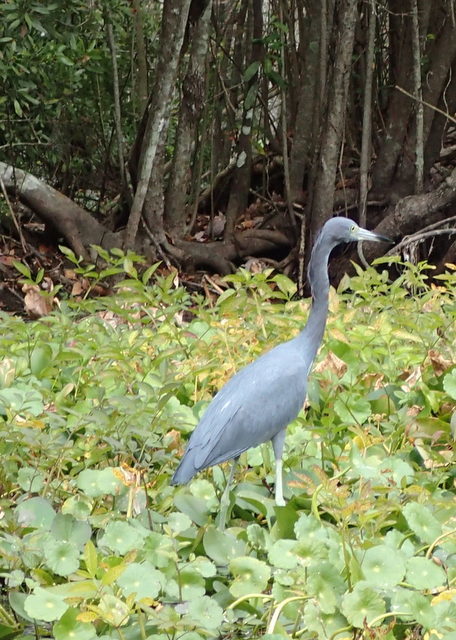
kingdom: Animalia
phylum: Chordata
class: Aves
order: Pelecaniformes
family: Ardeidae
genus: Egretta
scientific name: Egretta caerulea
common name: Little blue heron
